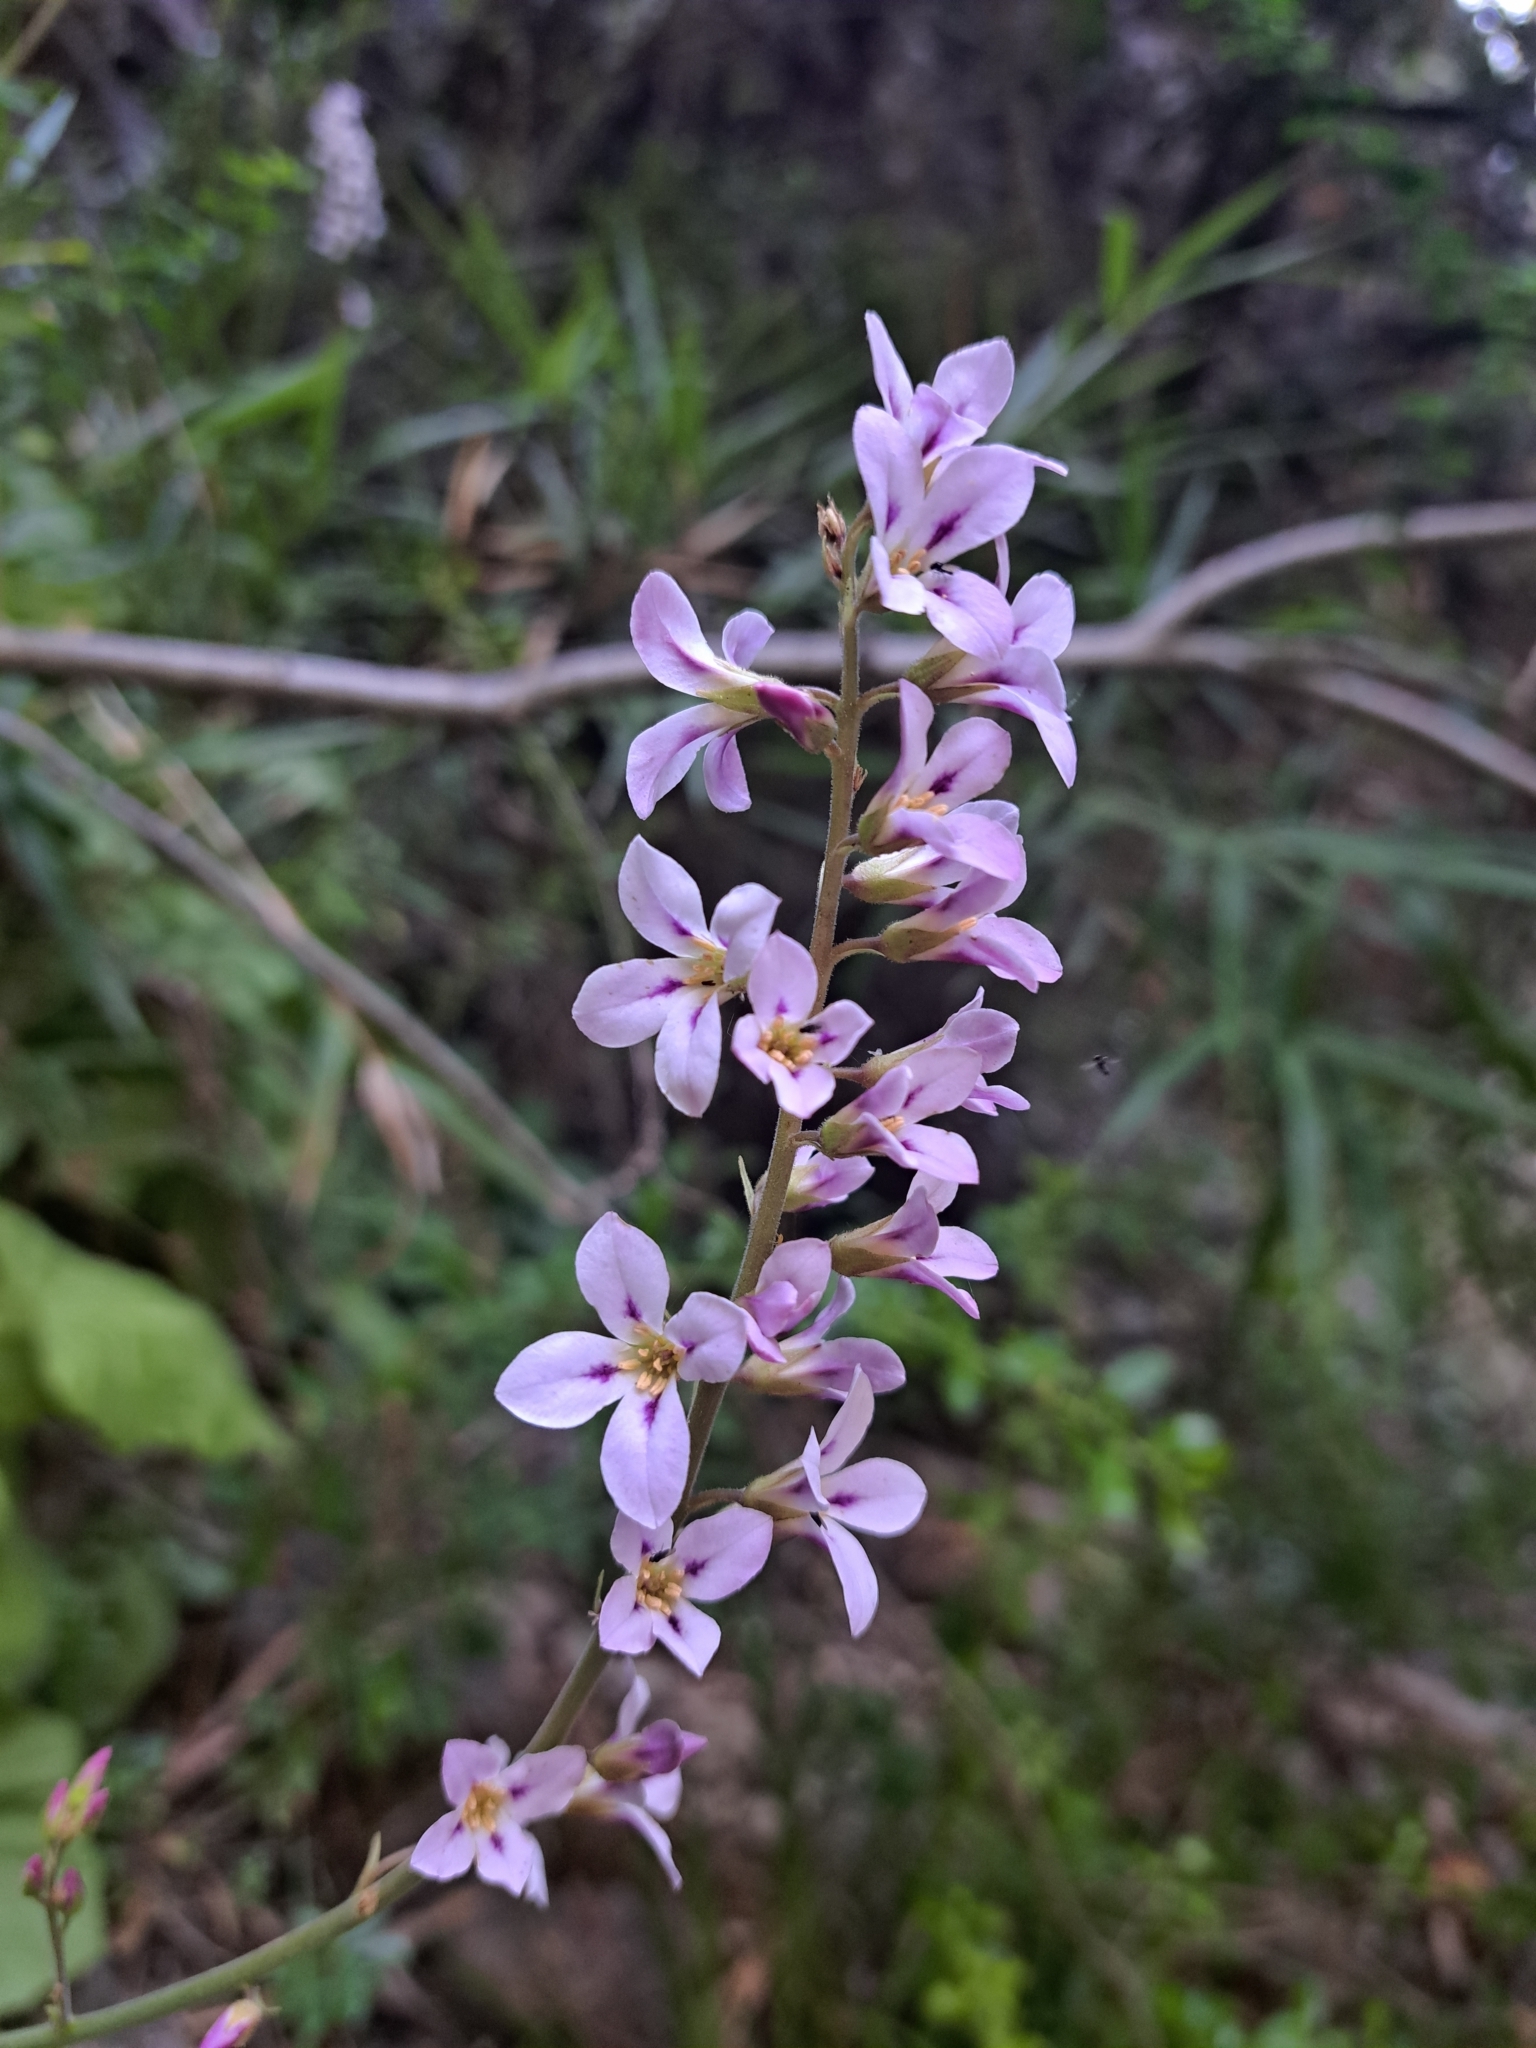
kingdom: Plantae
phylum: Tracheophyta
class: Magnoliopsida
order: Geraniales
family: Francoaceae
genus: Francoa
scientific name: Francoa appendiculata
